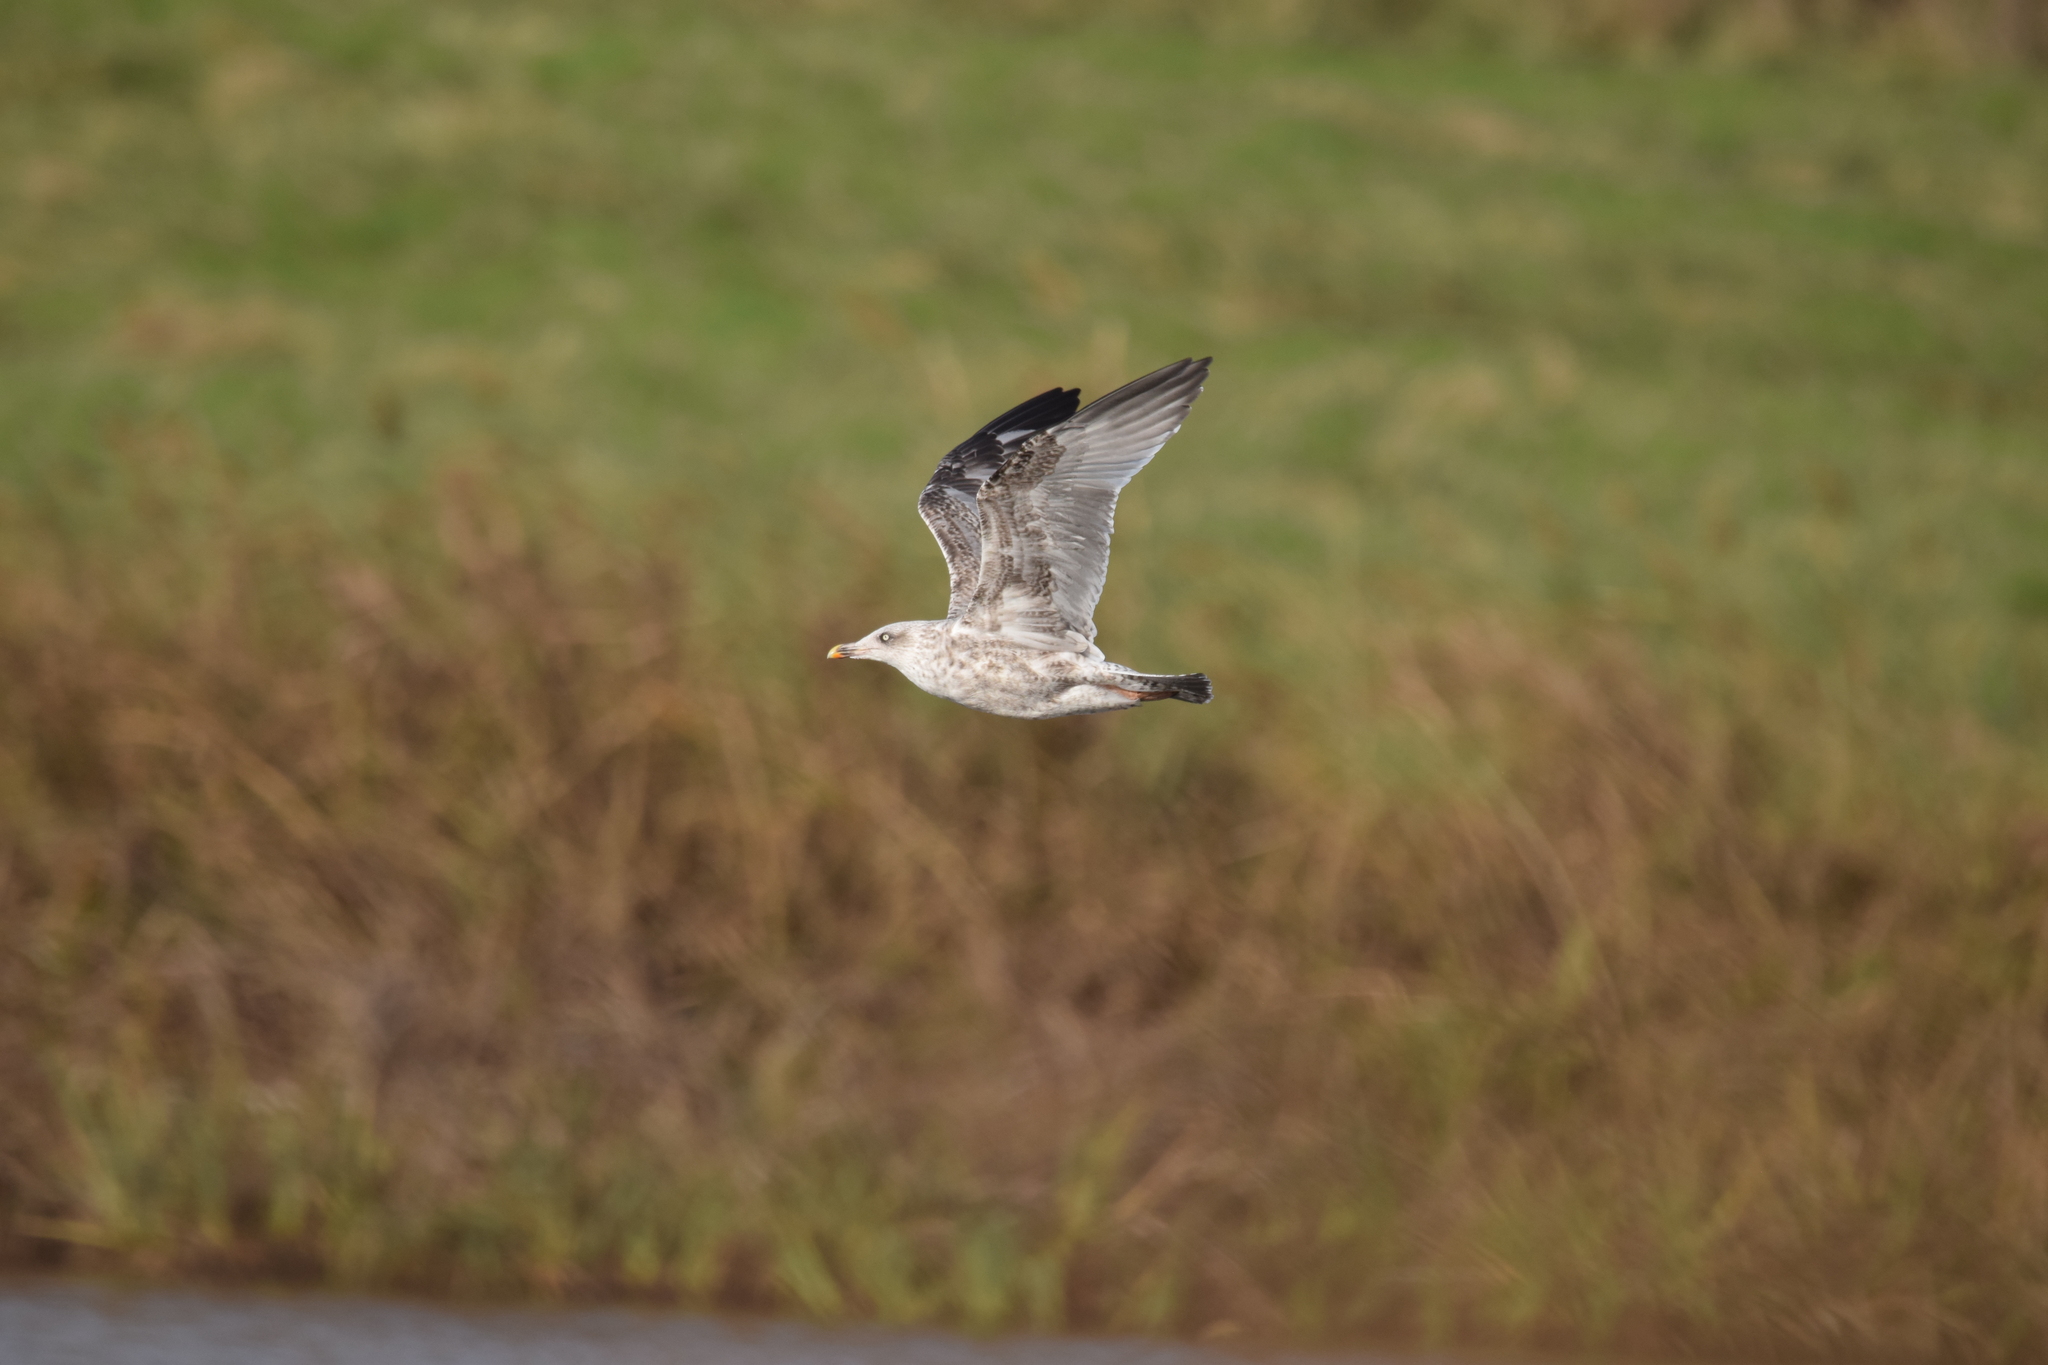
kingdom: Animalia
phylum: Chordata
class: Aves
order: Charadriiformes
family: Laridae
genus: Larus
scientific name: Larus argentatus
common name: Herring gull
